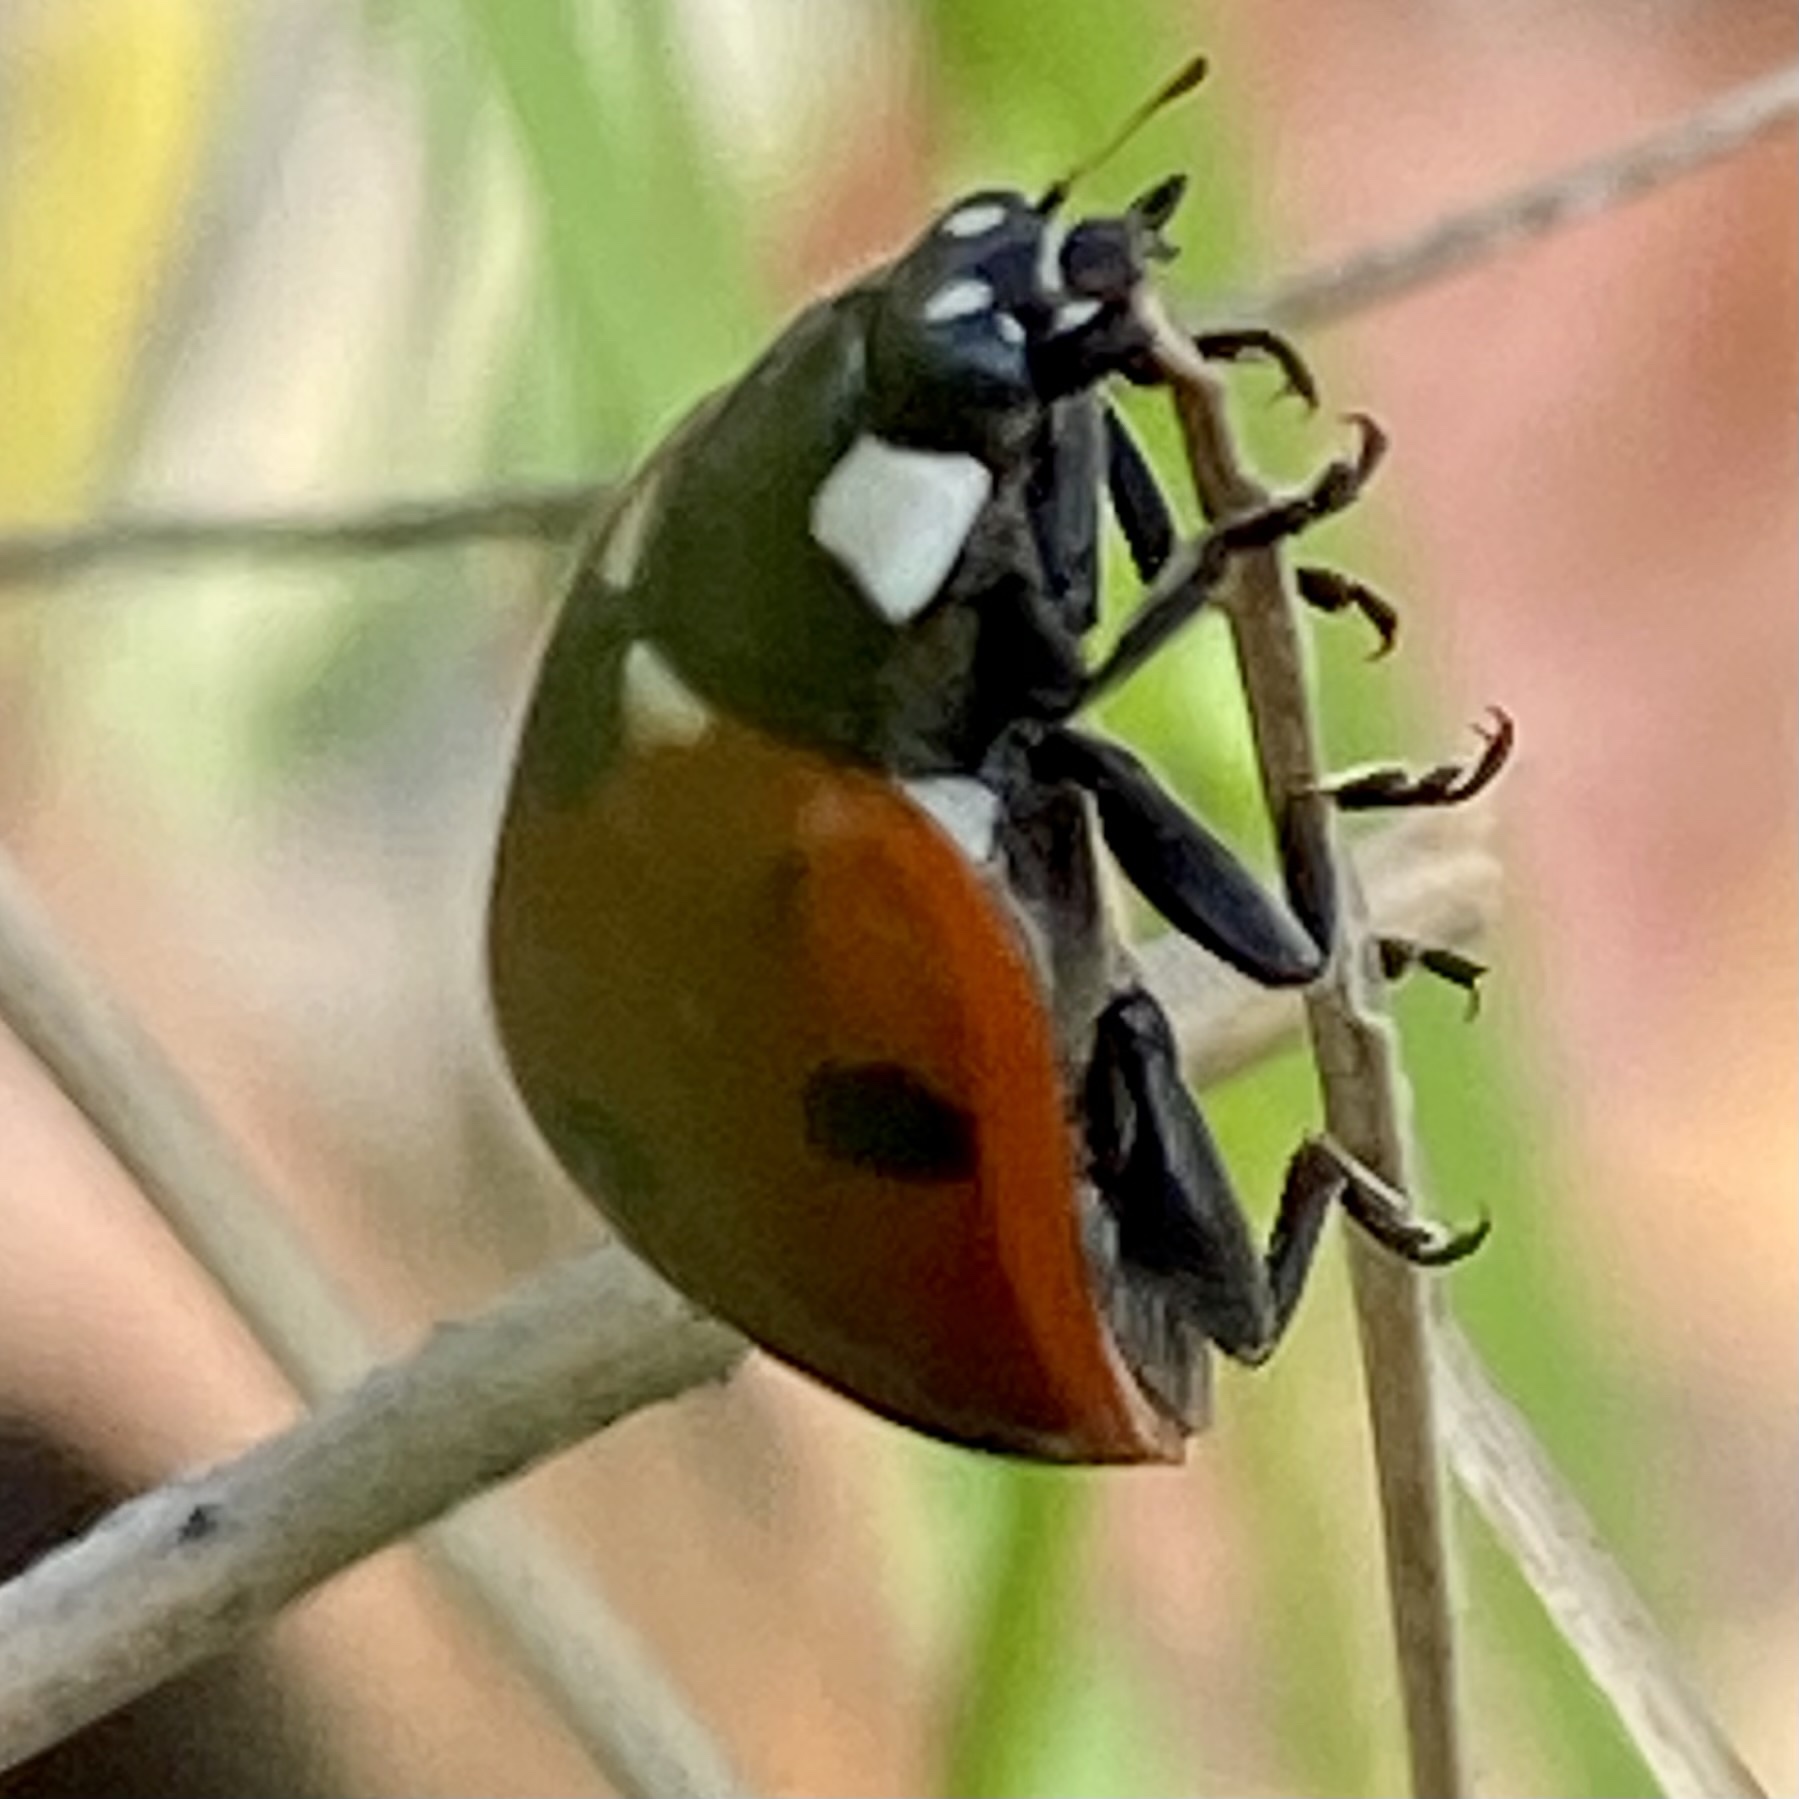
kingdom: Animalia
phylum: Arthropoda
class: Insecta
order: Coleoptera
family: Coccinellidae
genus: Coccinella
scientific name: Coccinella septempunctata
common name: Sevenspotted lady beetle
